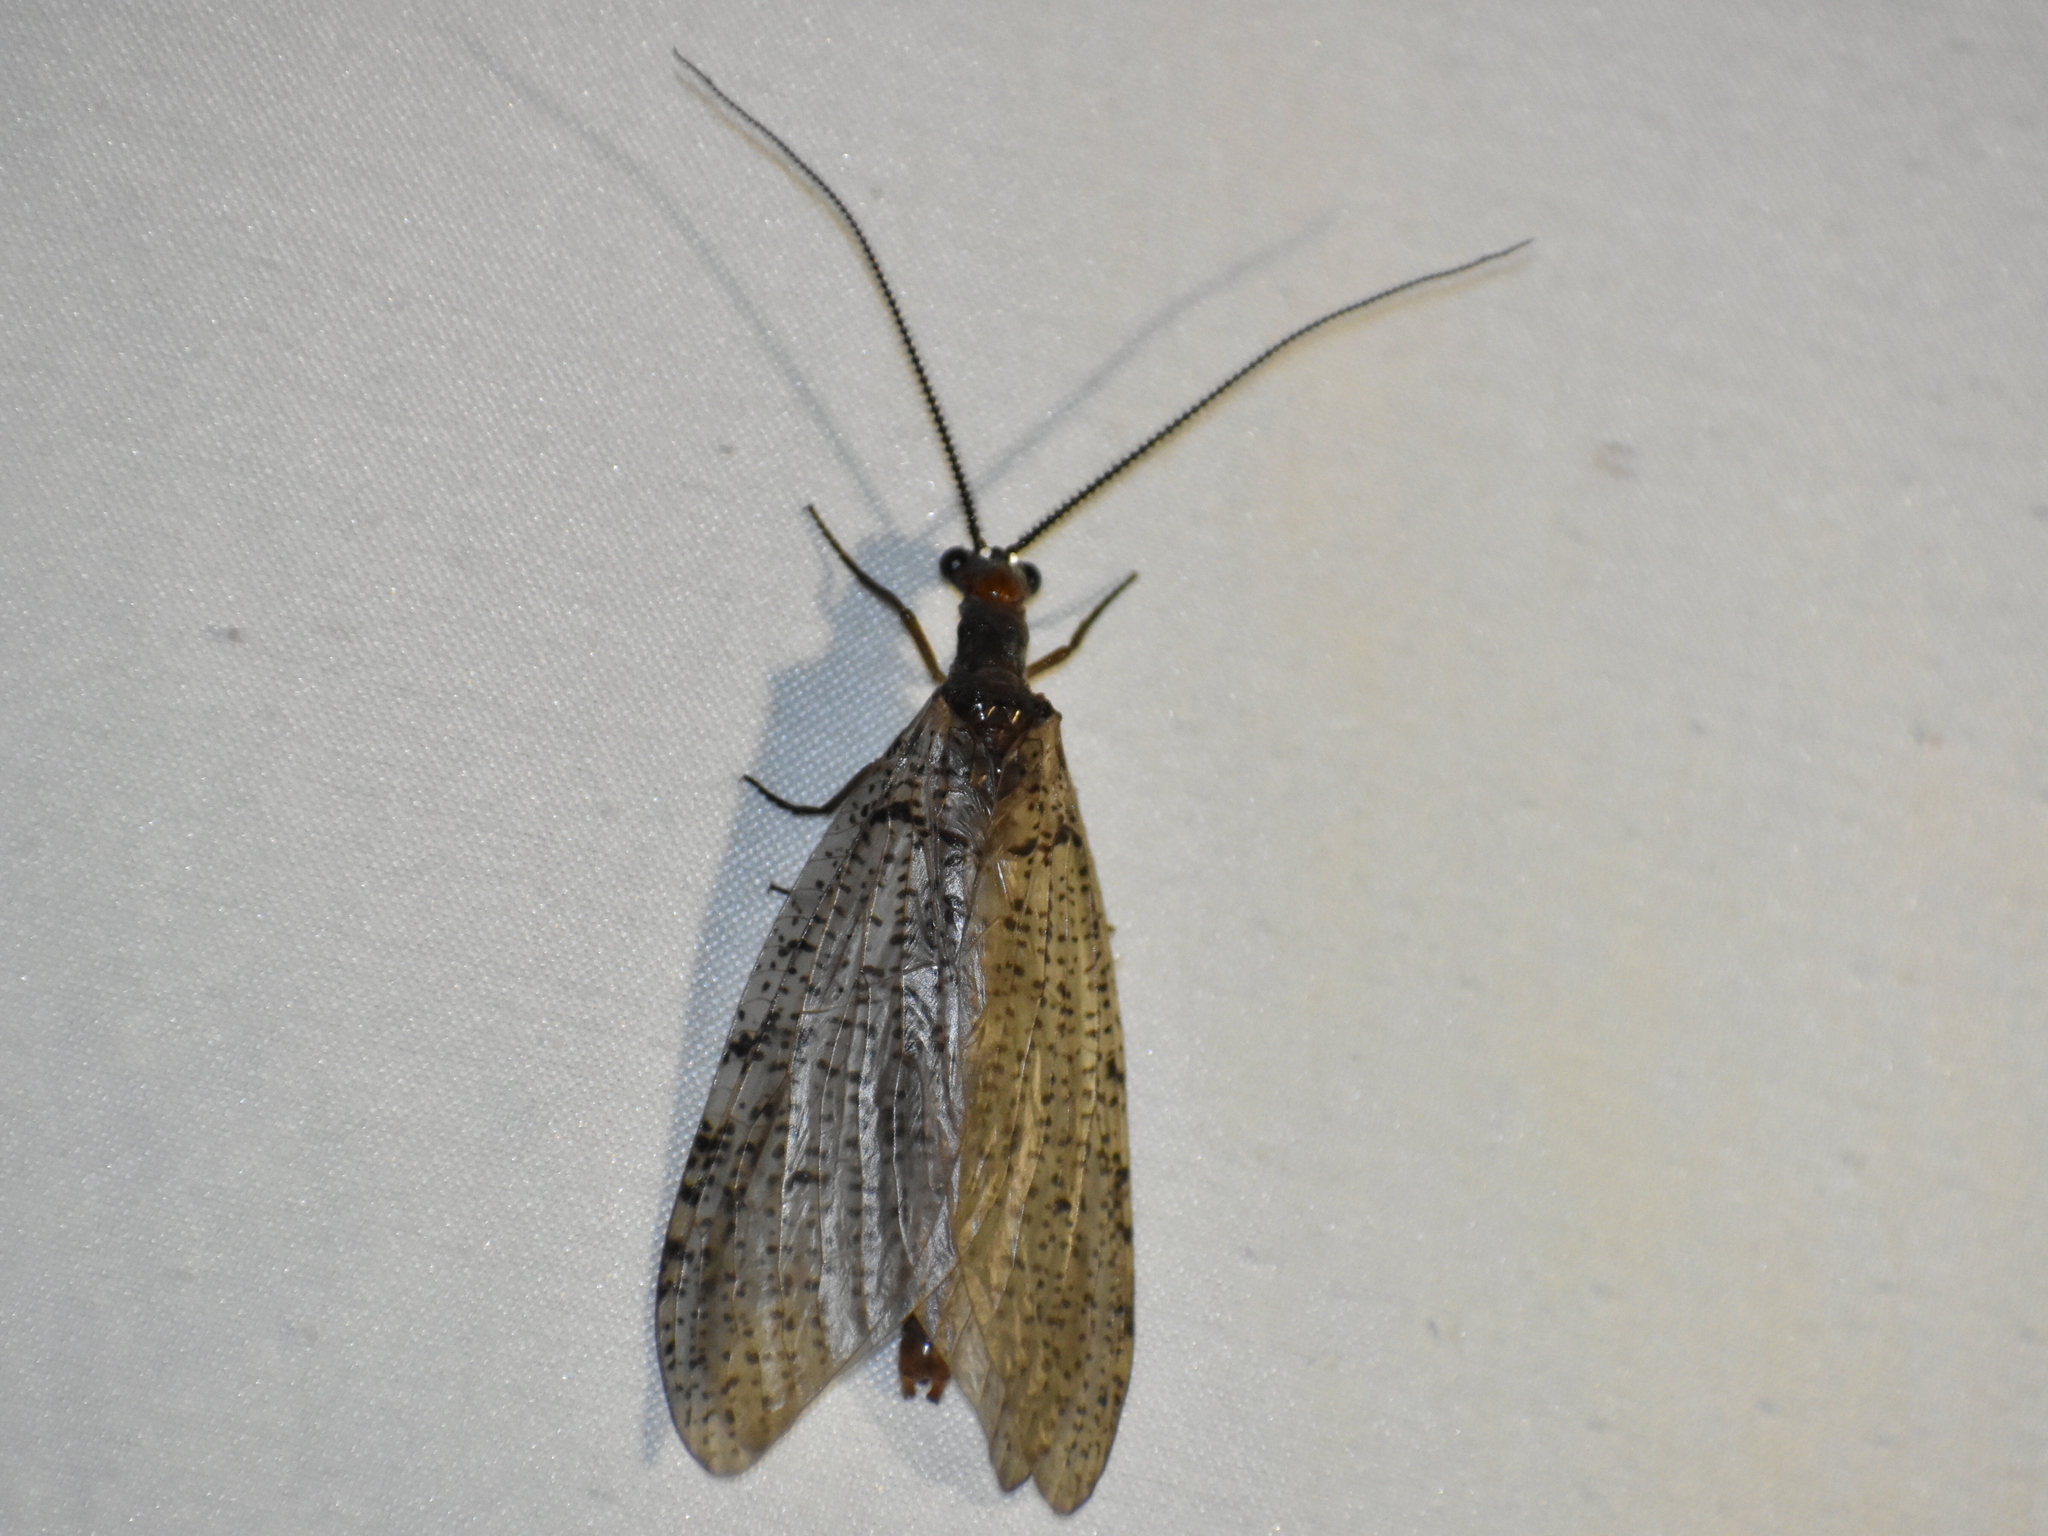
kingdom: Animalia
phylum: Arthropoda
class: Insecta
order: Megaloptera
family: Corydalidae
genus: Neohermes
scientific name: Neohermes concolor
